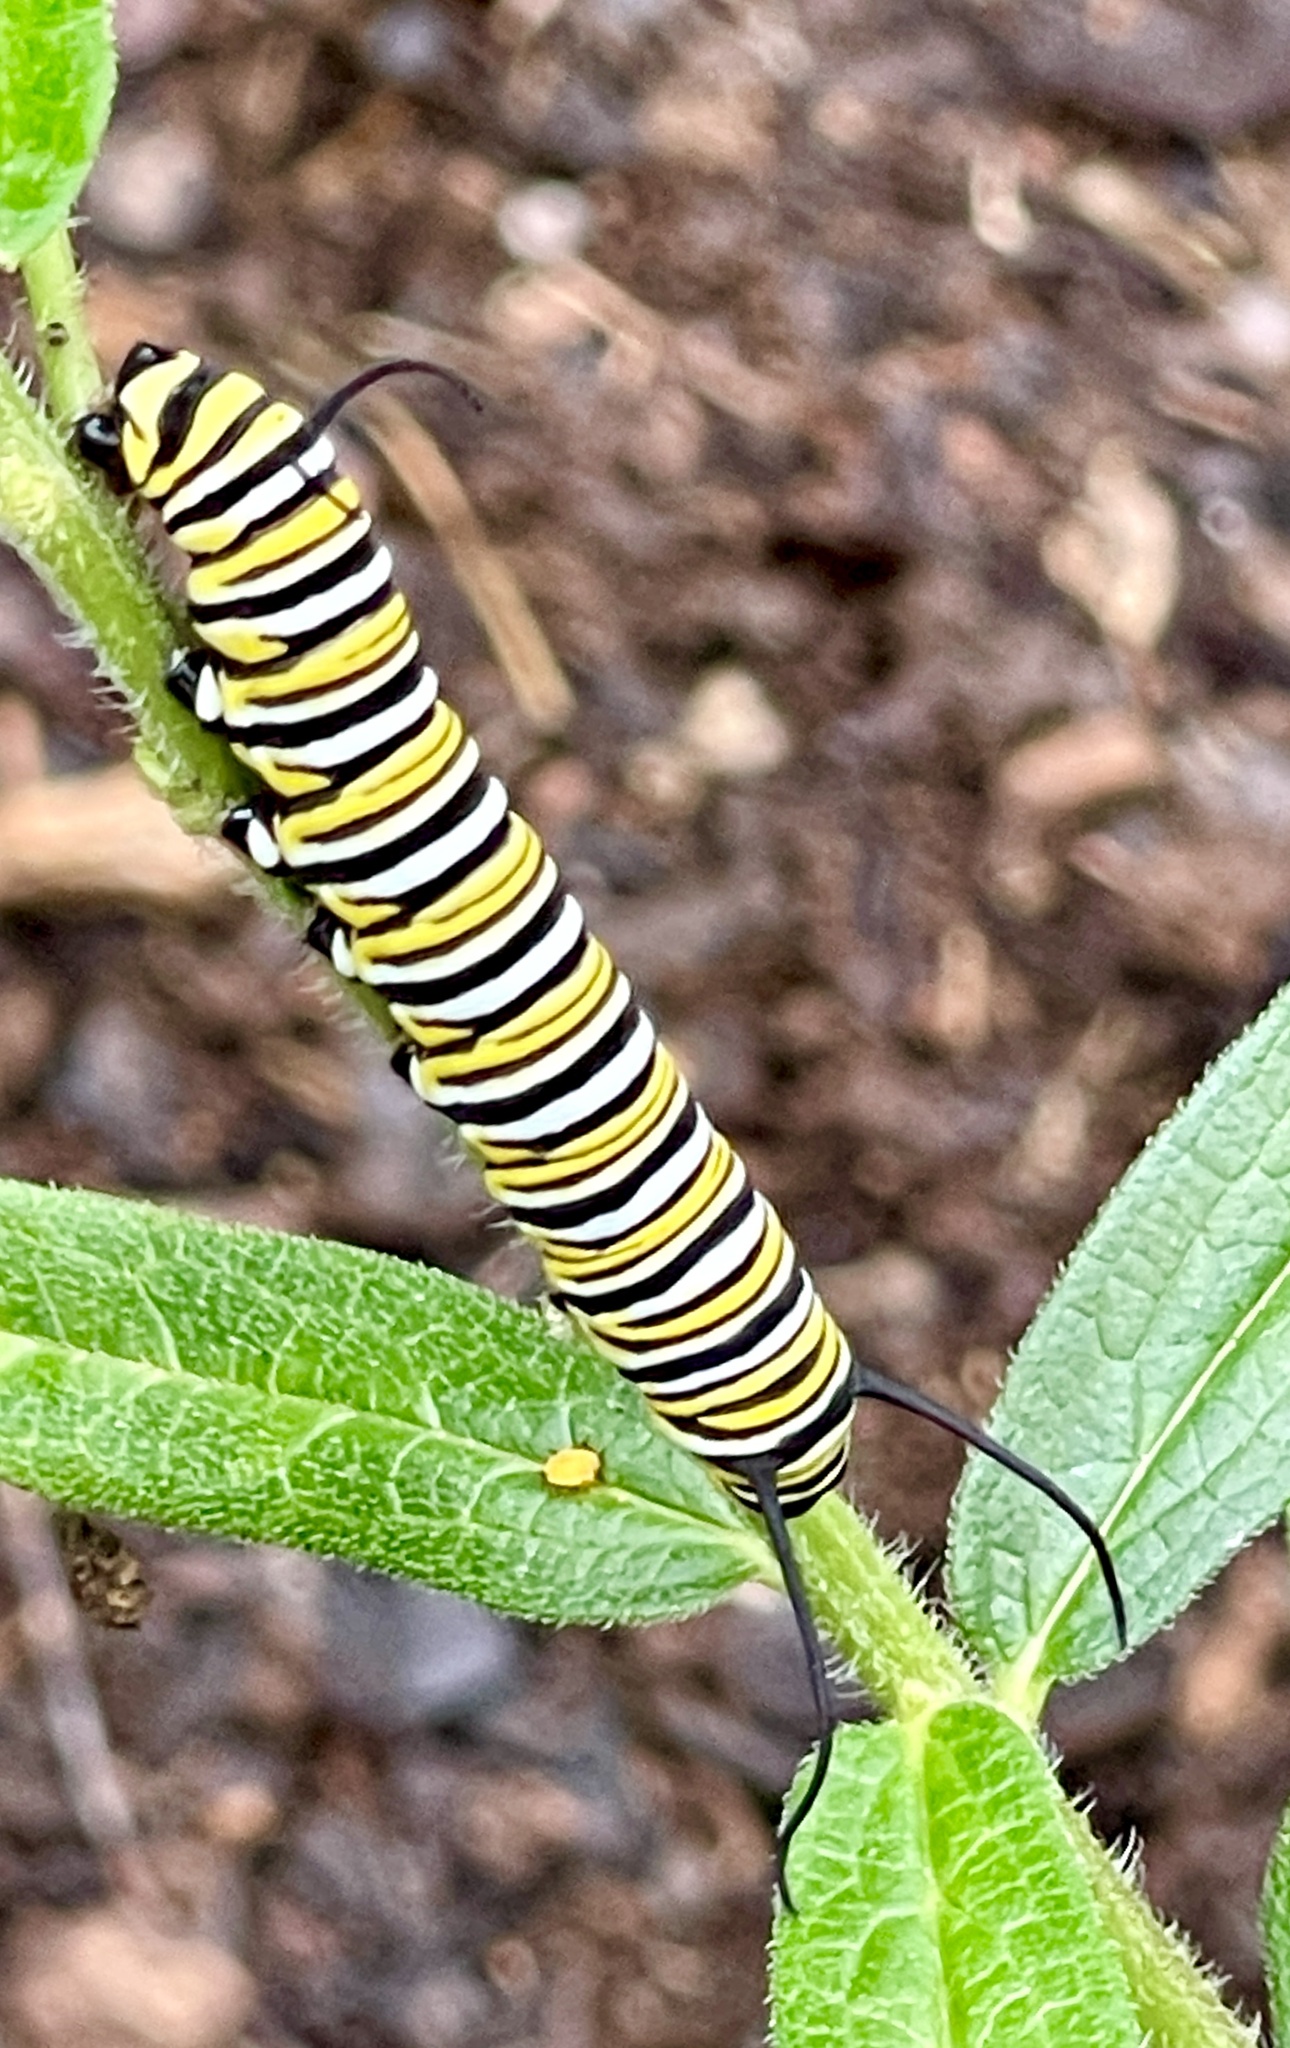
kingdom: Animalia
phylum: Arthropoda
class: Insecta
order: Lepidoptera
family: Nymphalidae
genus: Danaus
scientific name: Danaus plexippus
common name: Monarch
